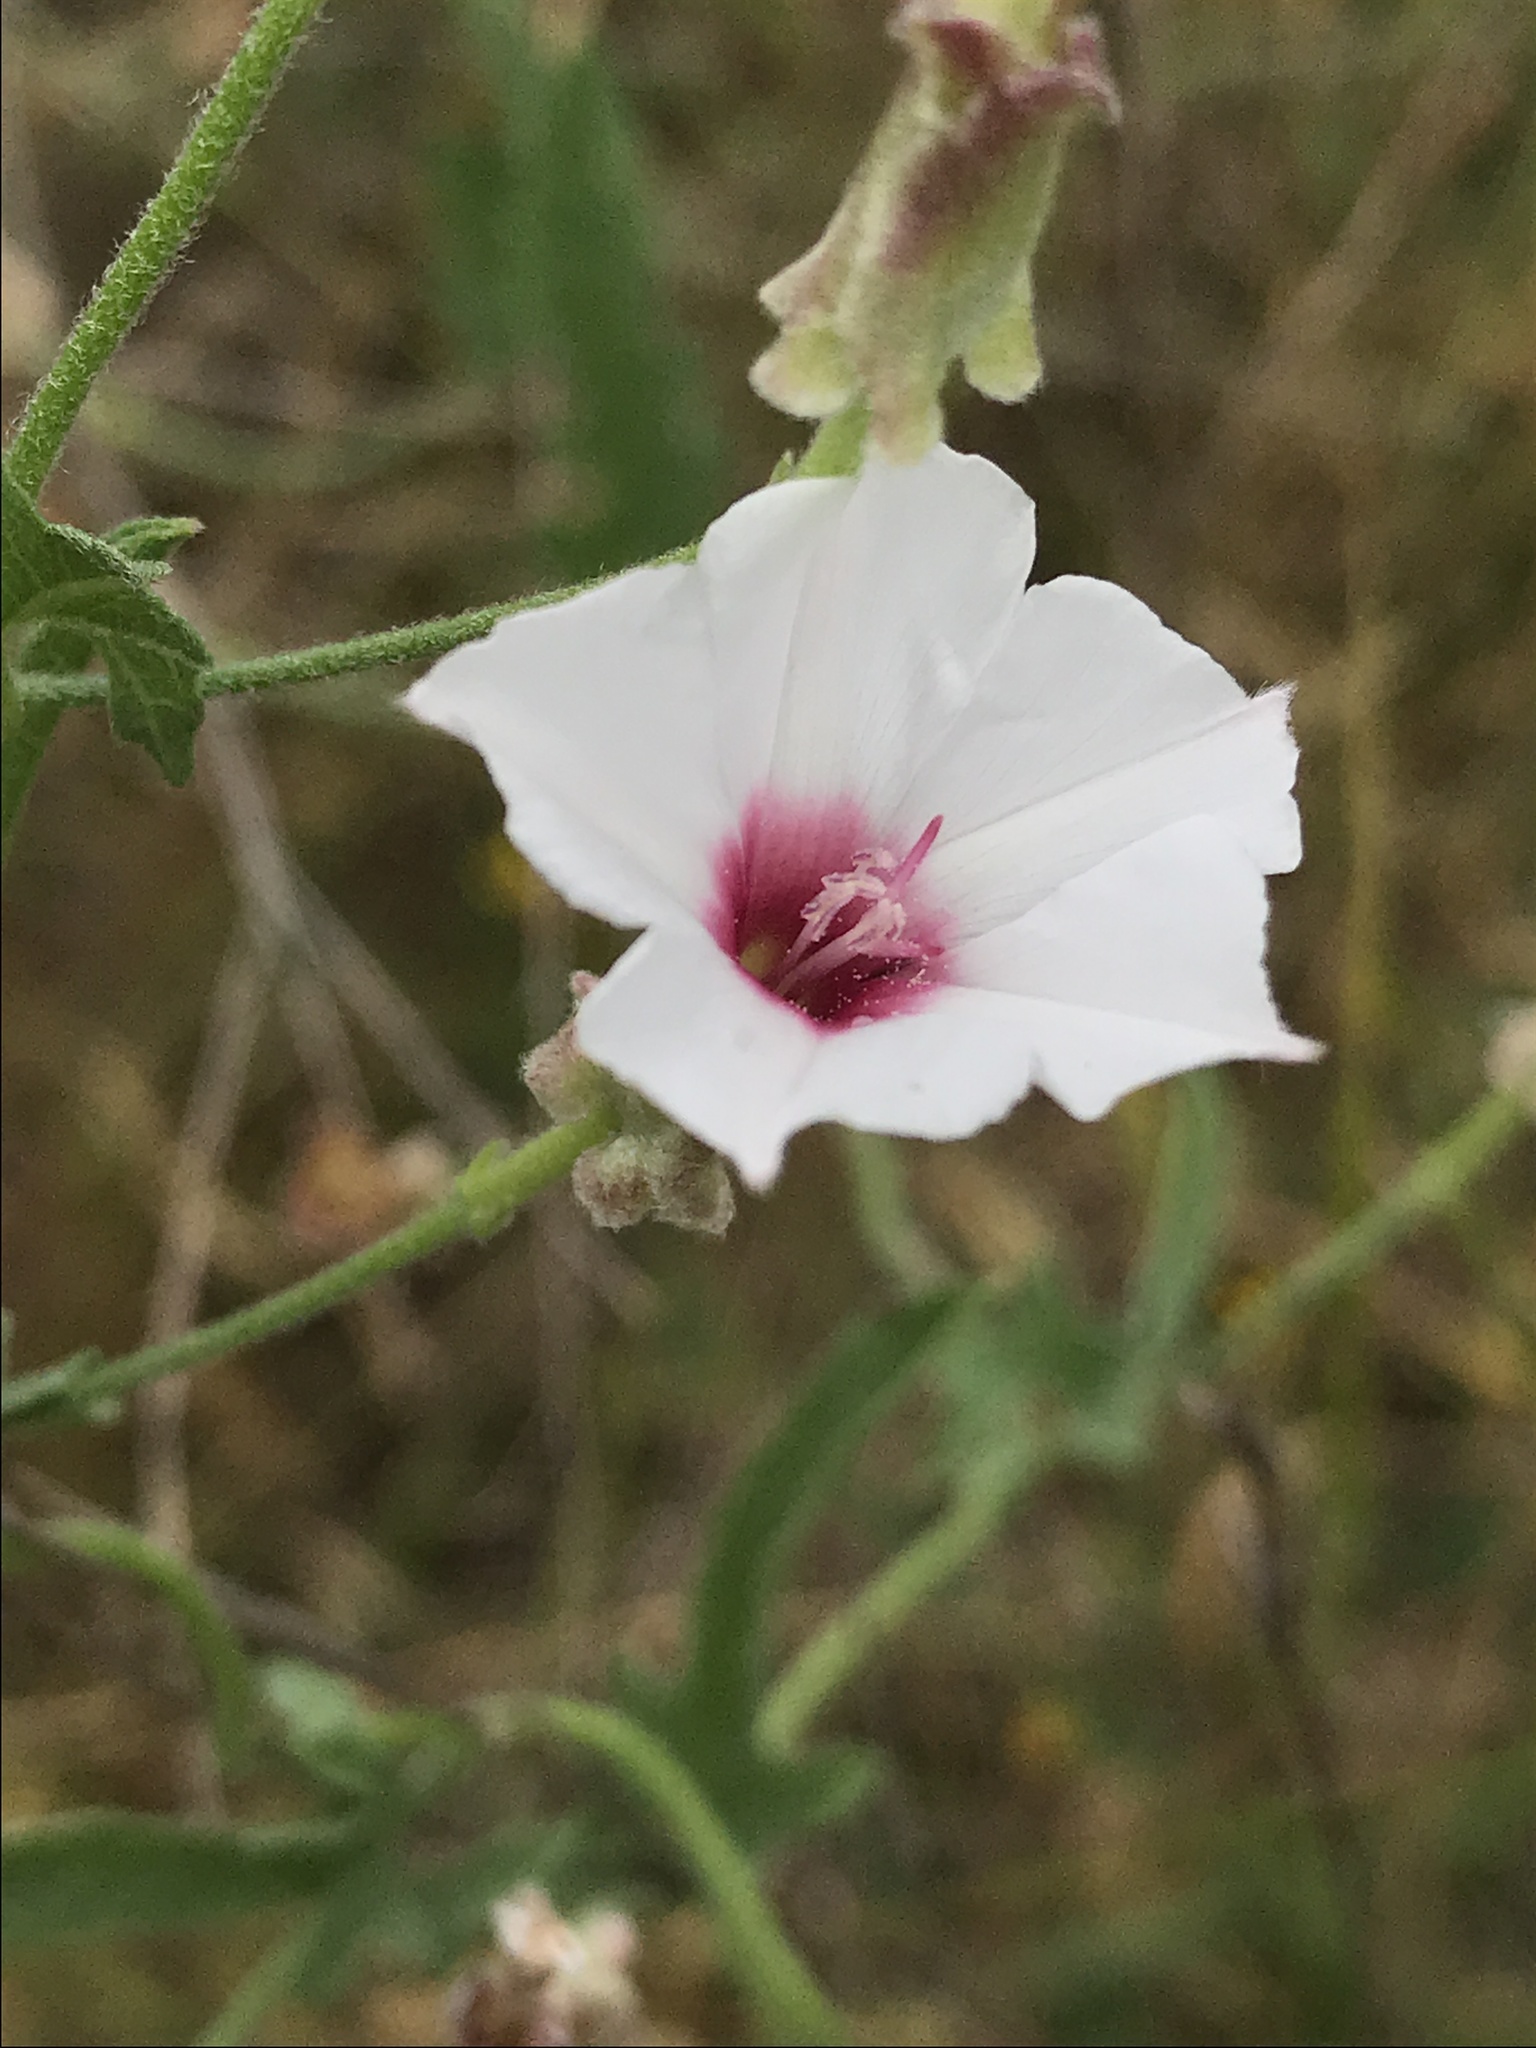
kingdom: Plantae
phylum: Tracheophyta
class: Magnoliopsida
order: Solanales
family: Convolvulaceae
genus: Convolvulus
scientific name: Convolvulus equitans
